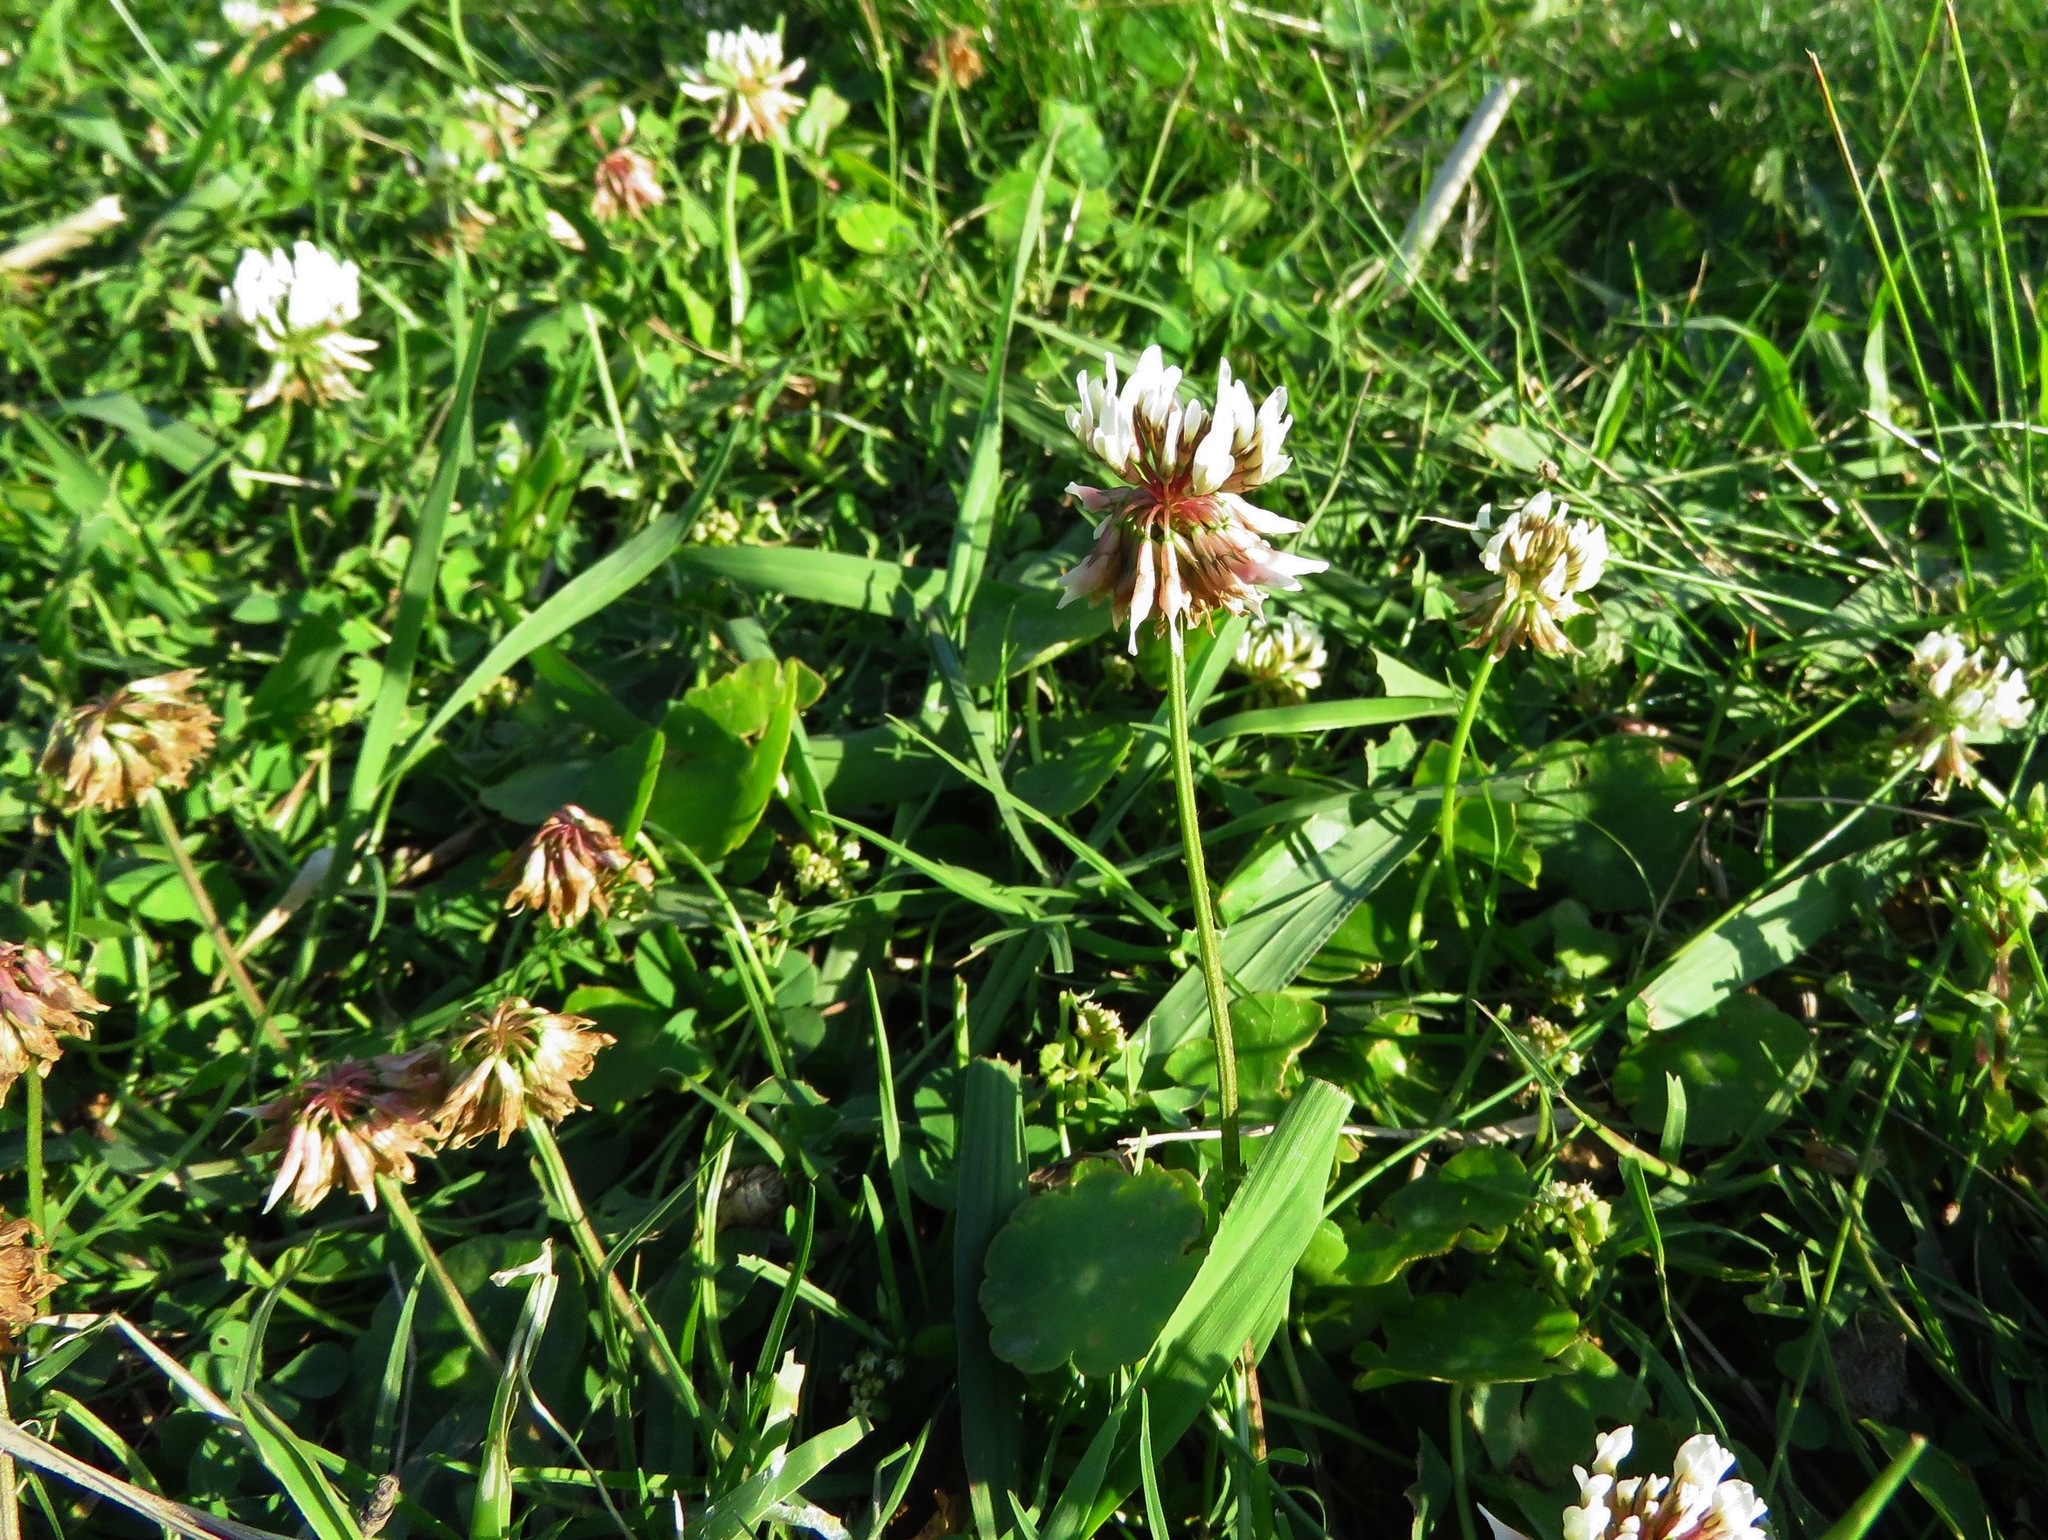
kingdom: Plantae
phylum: Tracheophyta
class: Magnoliopsida
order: Fabales
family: Fabaceae
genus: Trifolium
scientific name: Trifolium repens
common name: White clover
